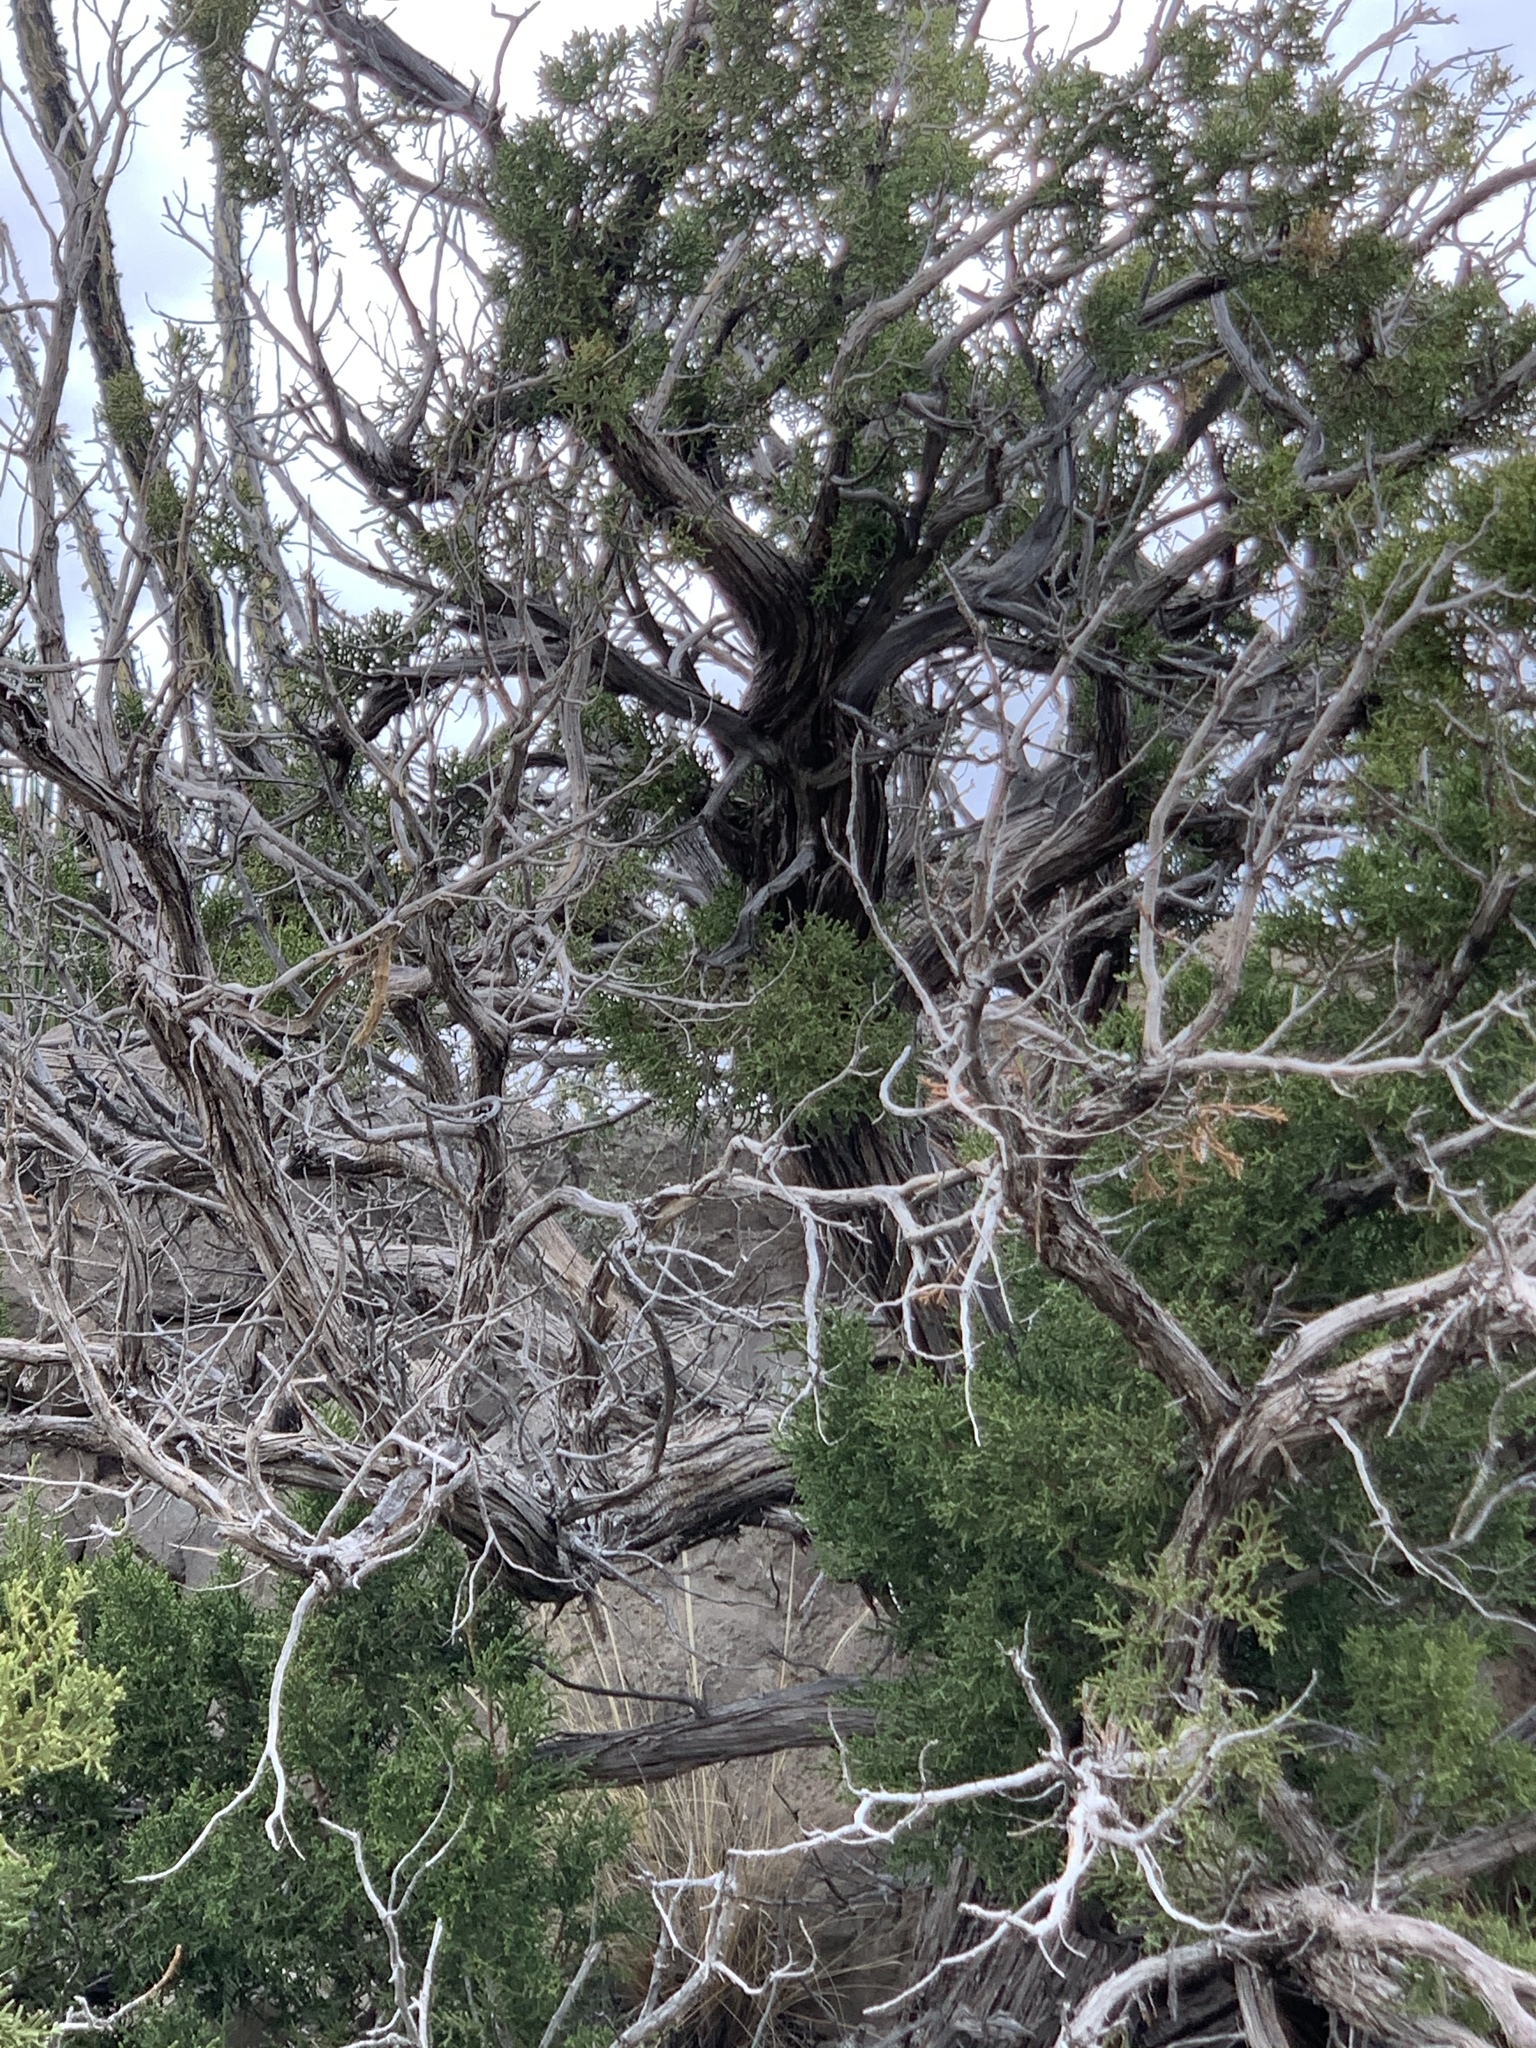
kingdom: Plantae
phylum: Tracheophyta
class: Pinopsida
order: Pinales
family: Cupressaceae
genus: Juniperus
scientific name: Juniperus monosperma
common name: One-seed juniper
